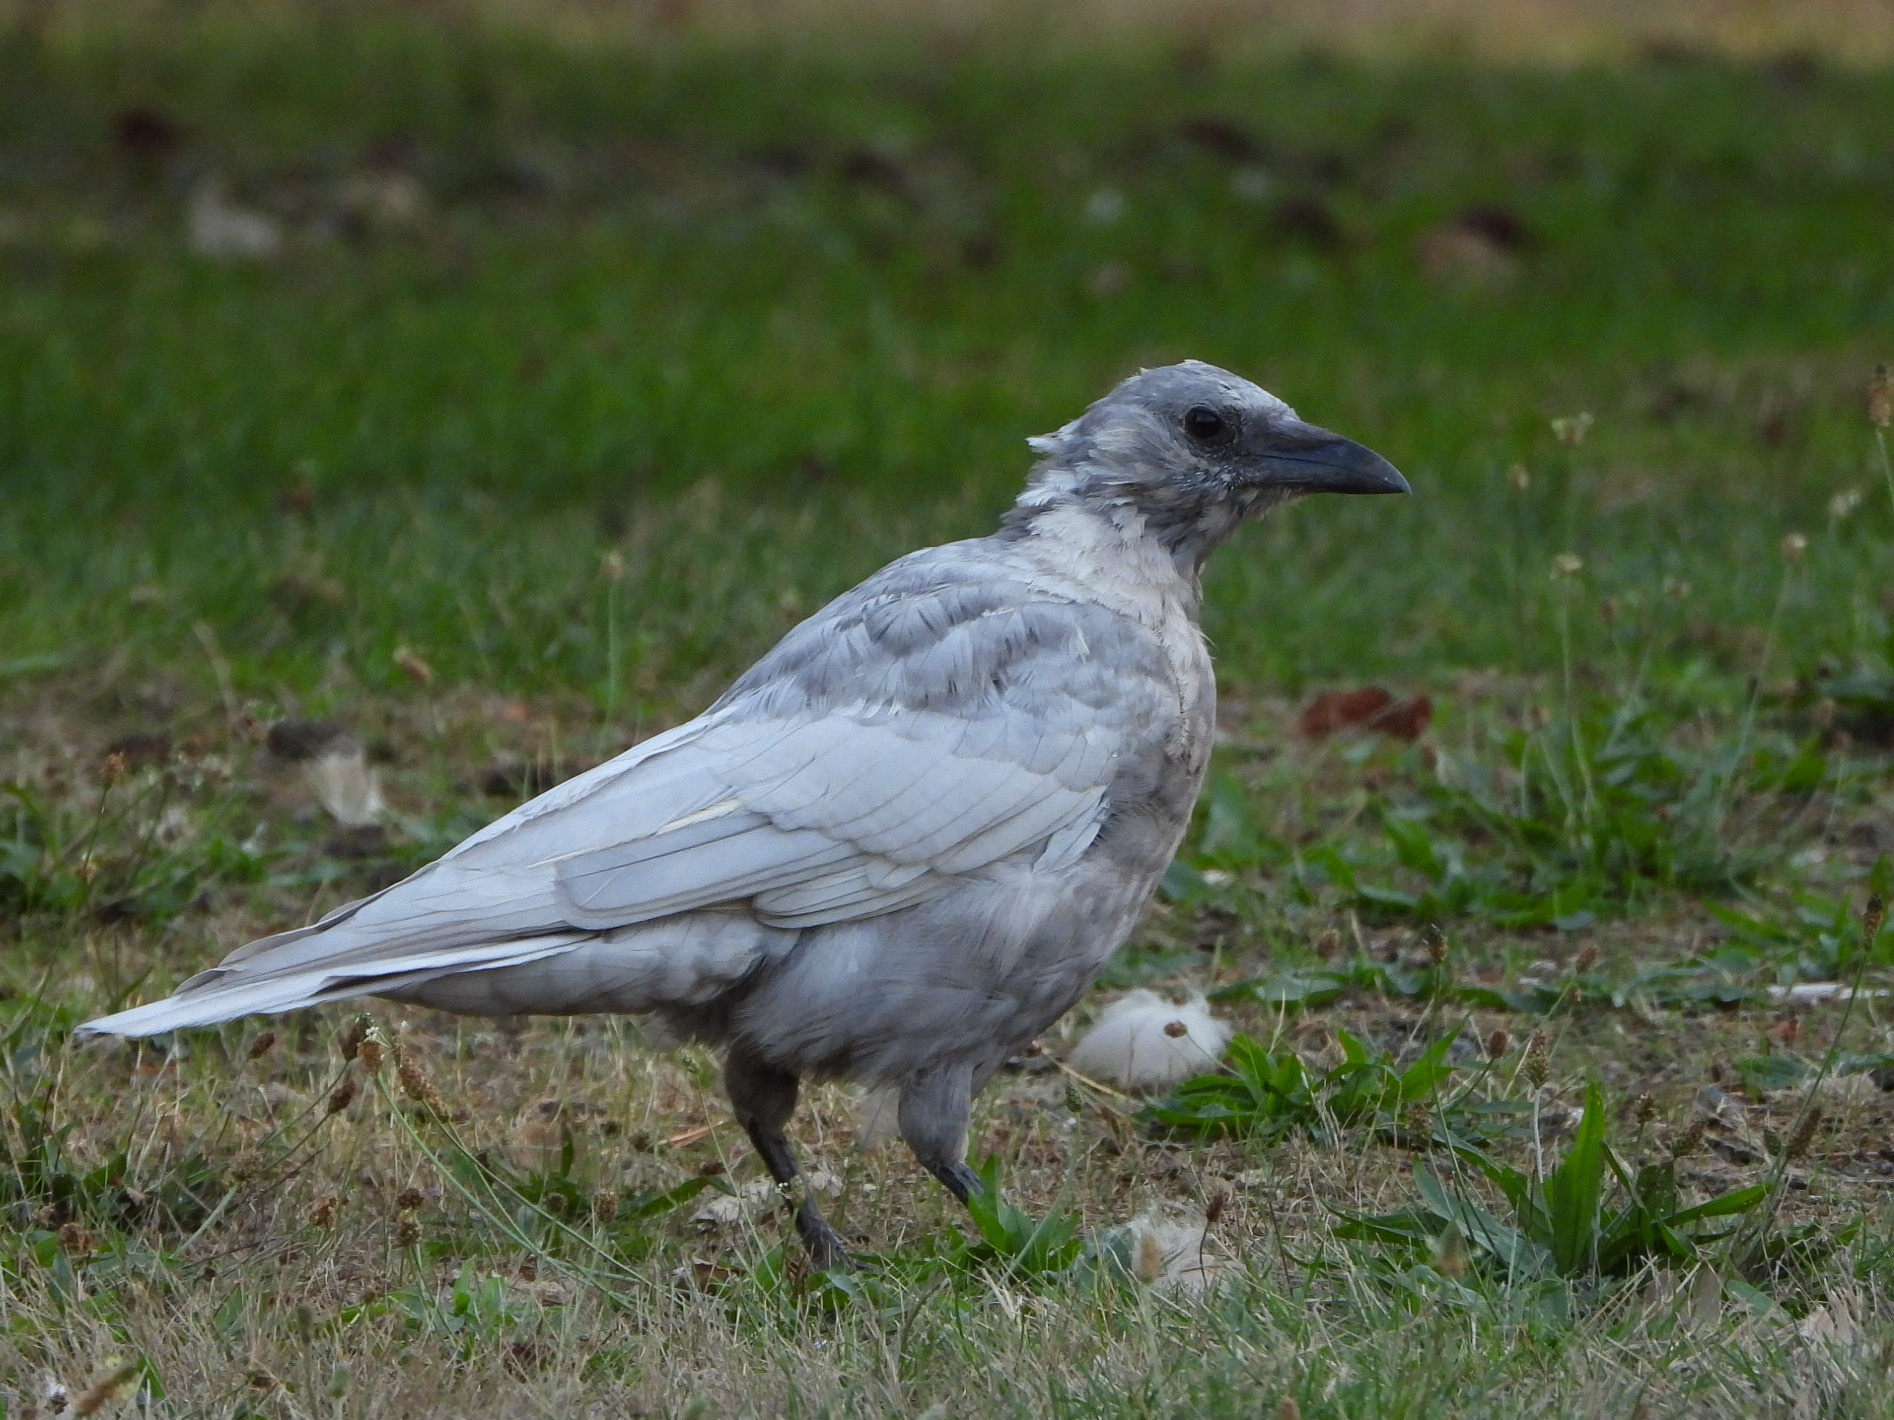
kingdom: Animalia
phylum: Chordata
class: Aves
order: Passeriformes
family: Corvidae
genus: Corvus
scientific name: Corvus brachyrhynchos
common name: American crow
